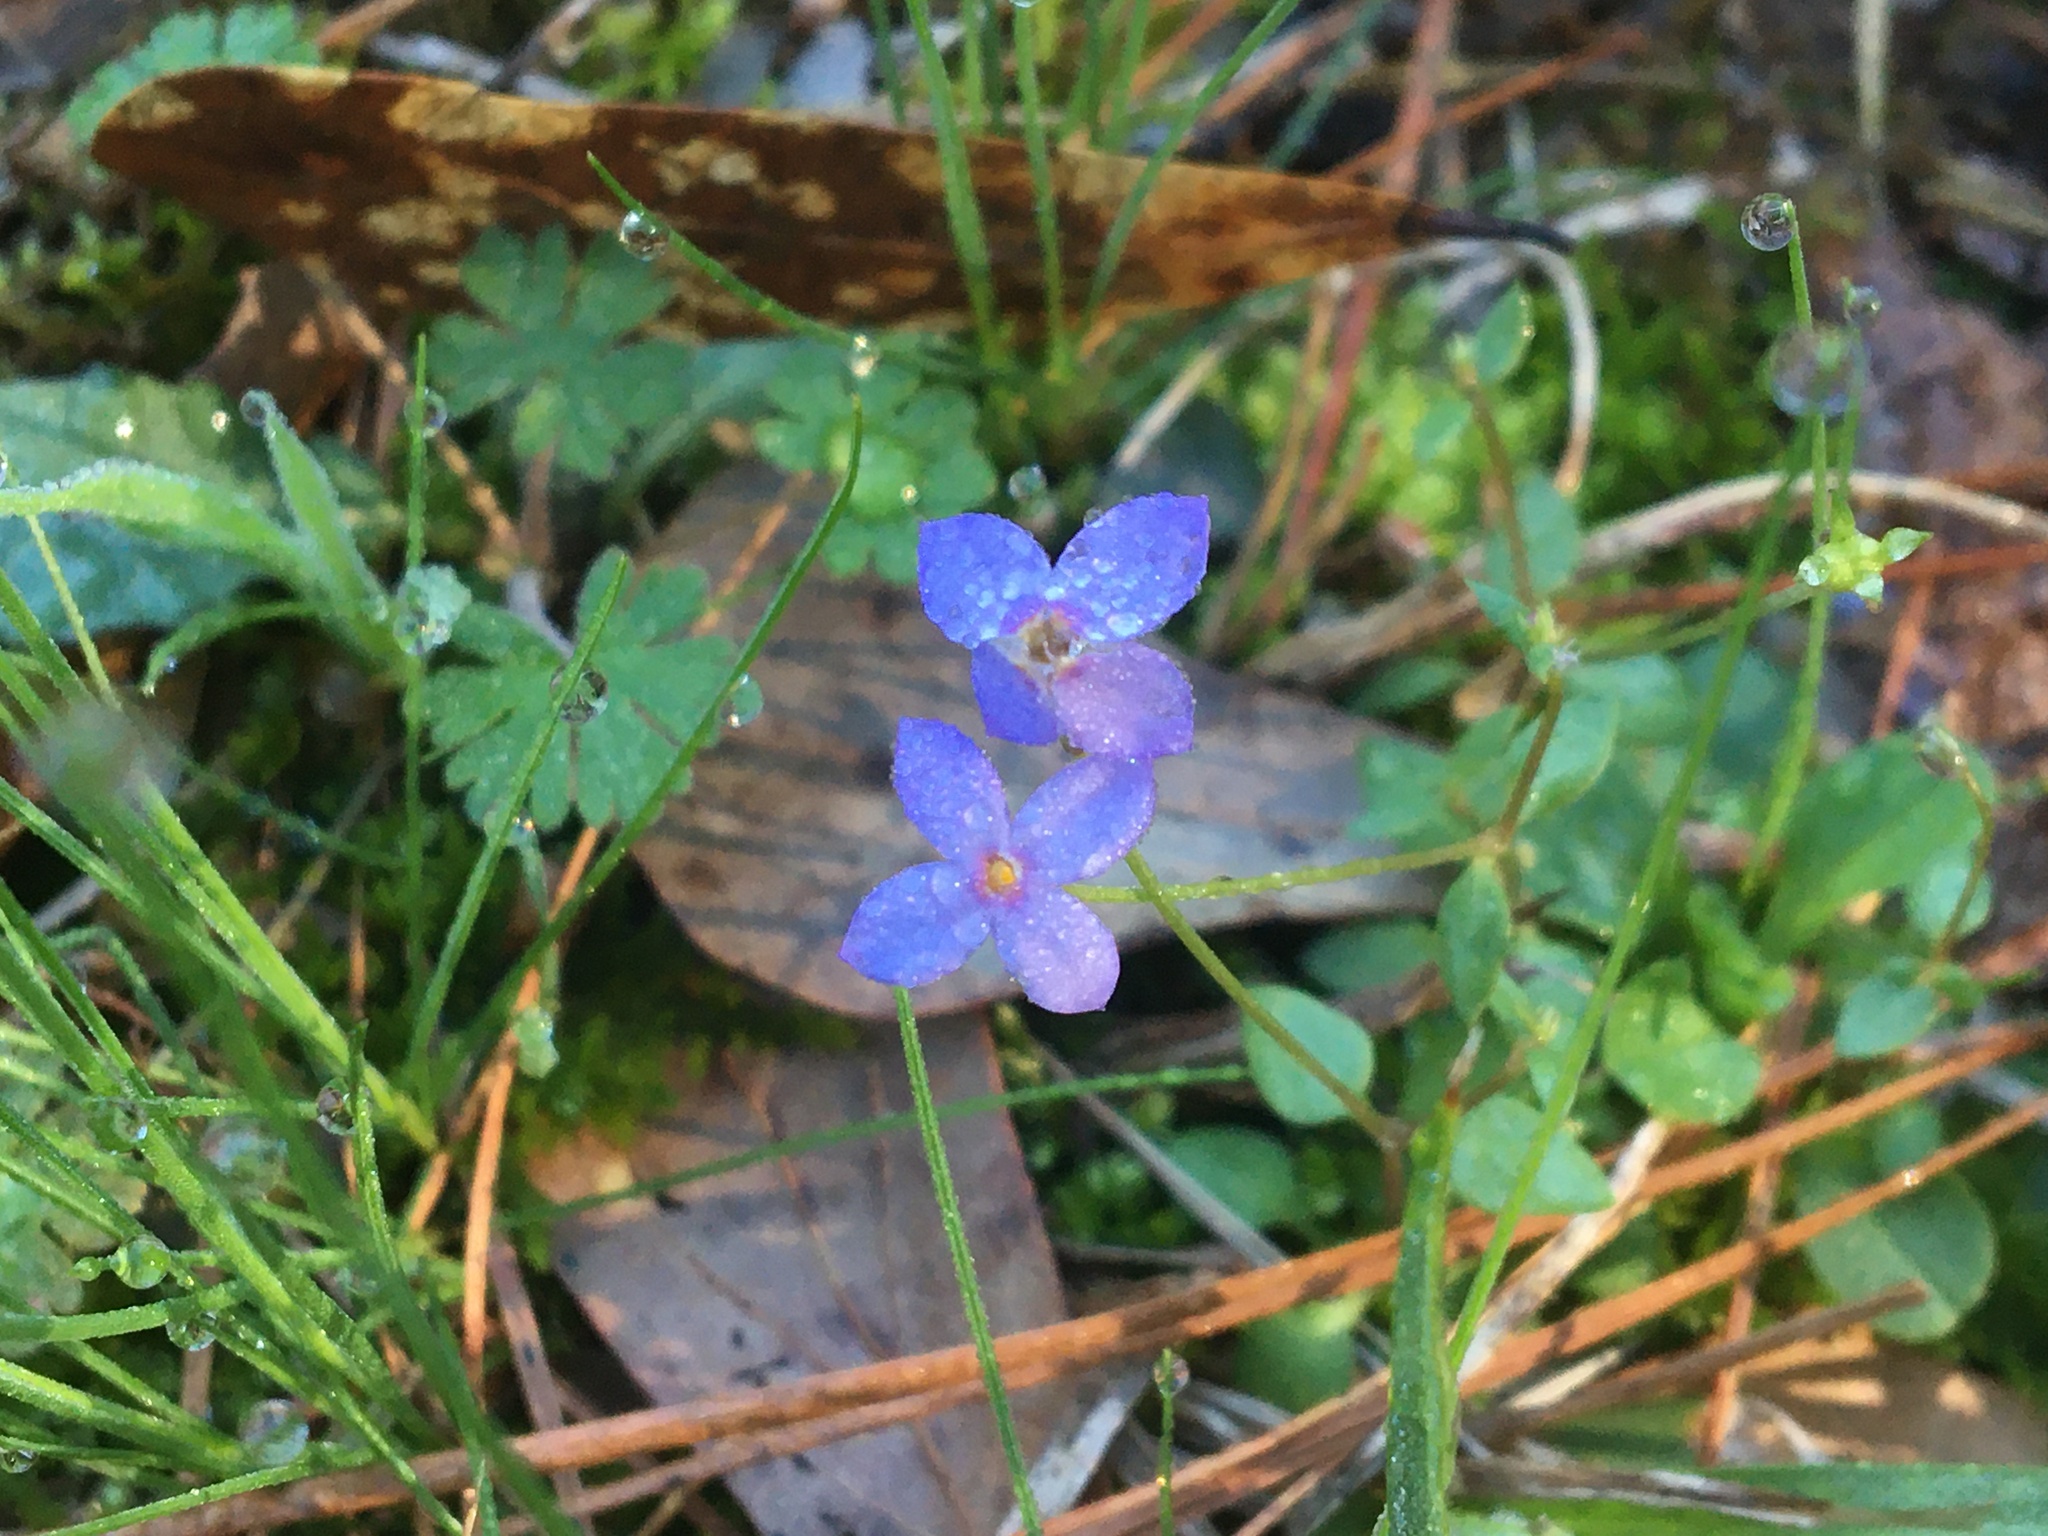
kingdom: Plantae
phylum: Tracheophyta
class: Magnoliopsida
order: Gentianales
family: Rubiaceae
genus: Houstonia
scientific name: Houstonia pusilla
